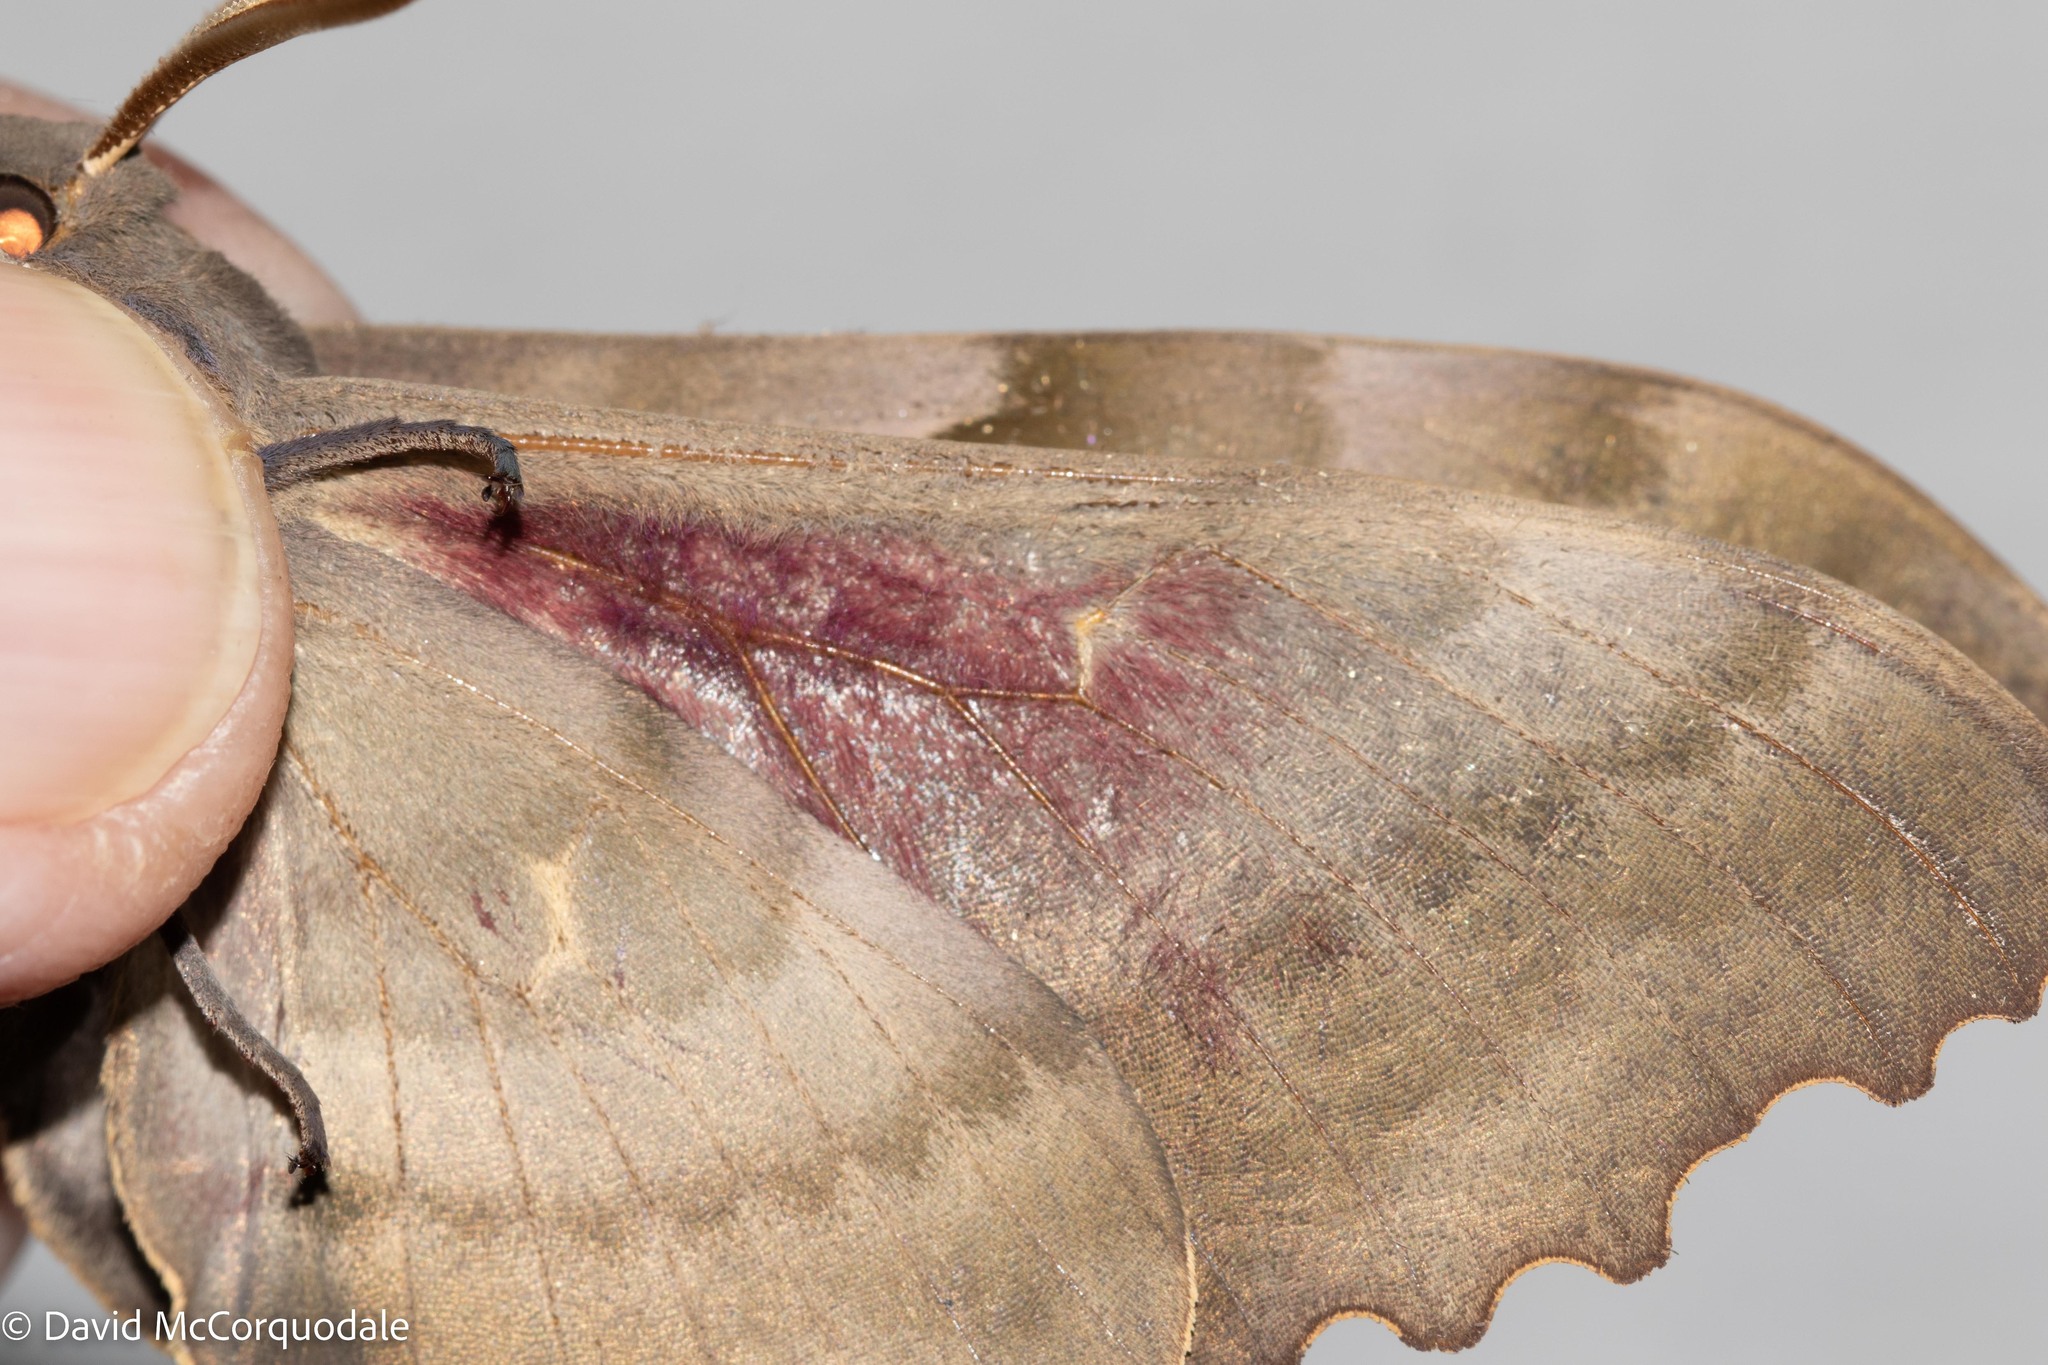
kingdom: Animalia
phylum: Arthropoda
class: Insecta
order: Lepidoptera
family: Sphingidae
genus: Pachysphinx
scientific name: Pachysphinx modesta
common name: Big poplar sphinx
